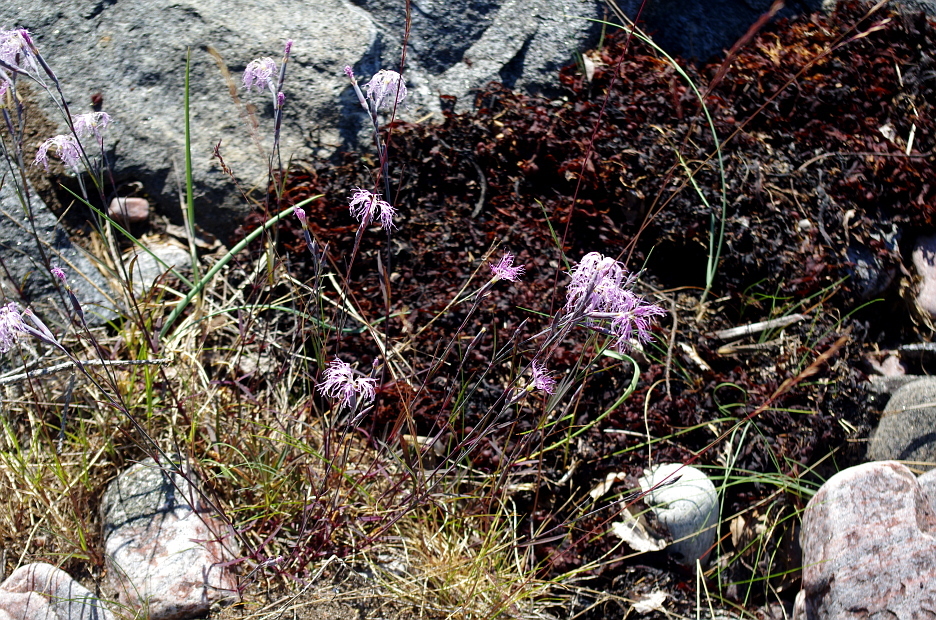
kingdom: Plantae
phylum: Tracheophyta
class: Magnoliopsida
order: Caryophyllales
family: Caryophyllaceae
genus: Dianthus
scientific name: Dianthus superbus
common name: Fringed pink
